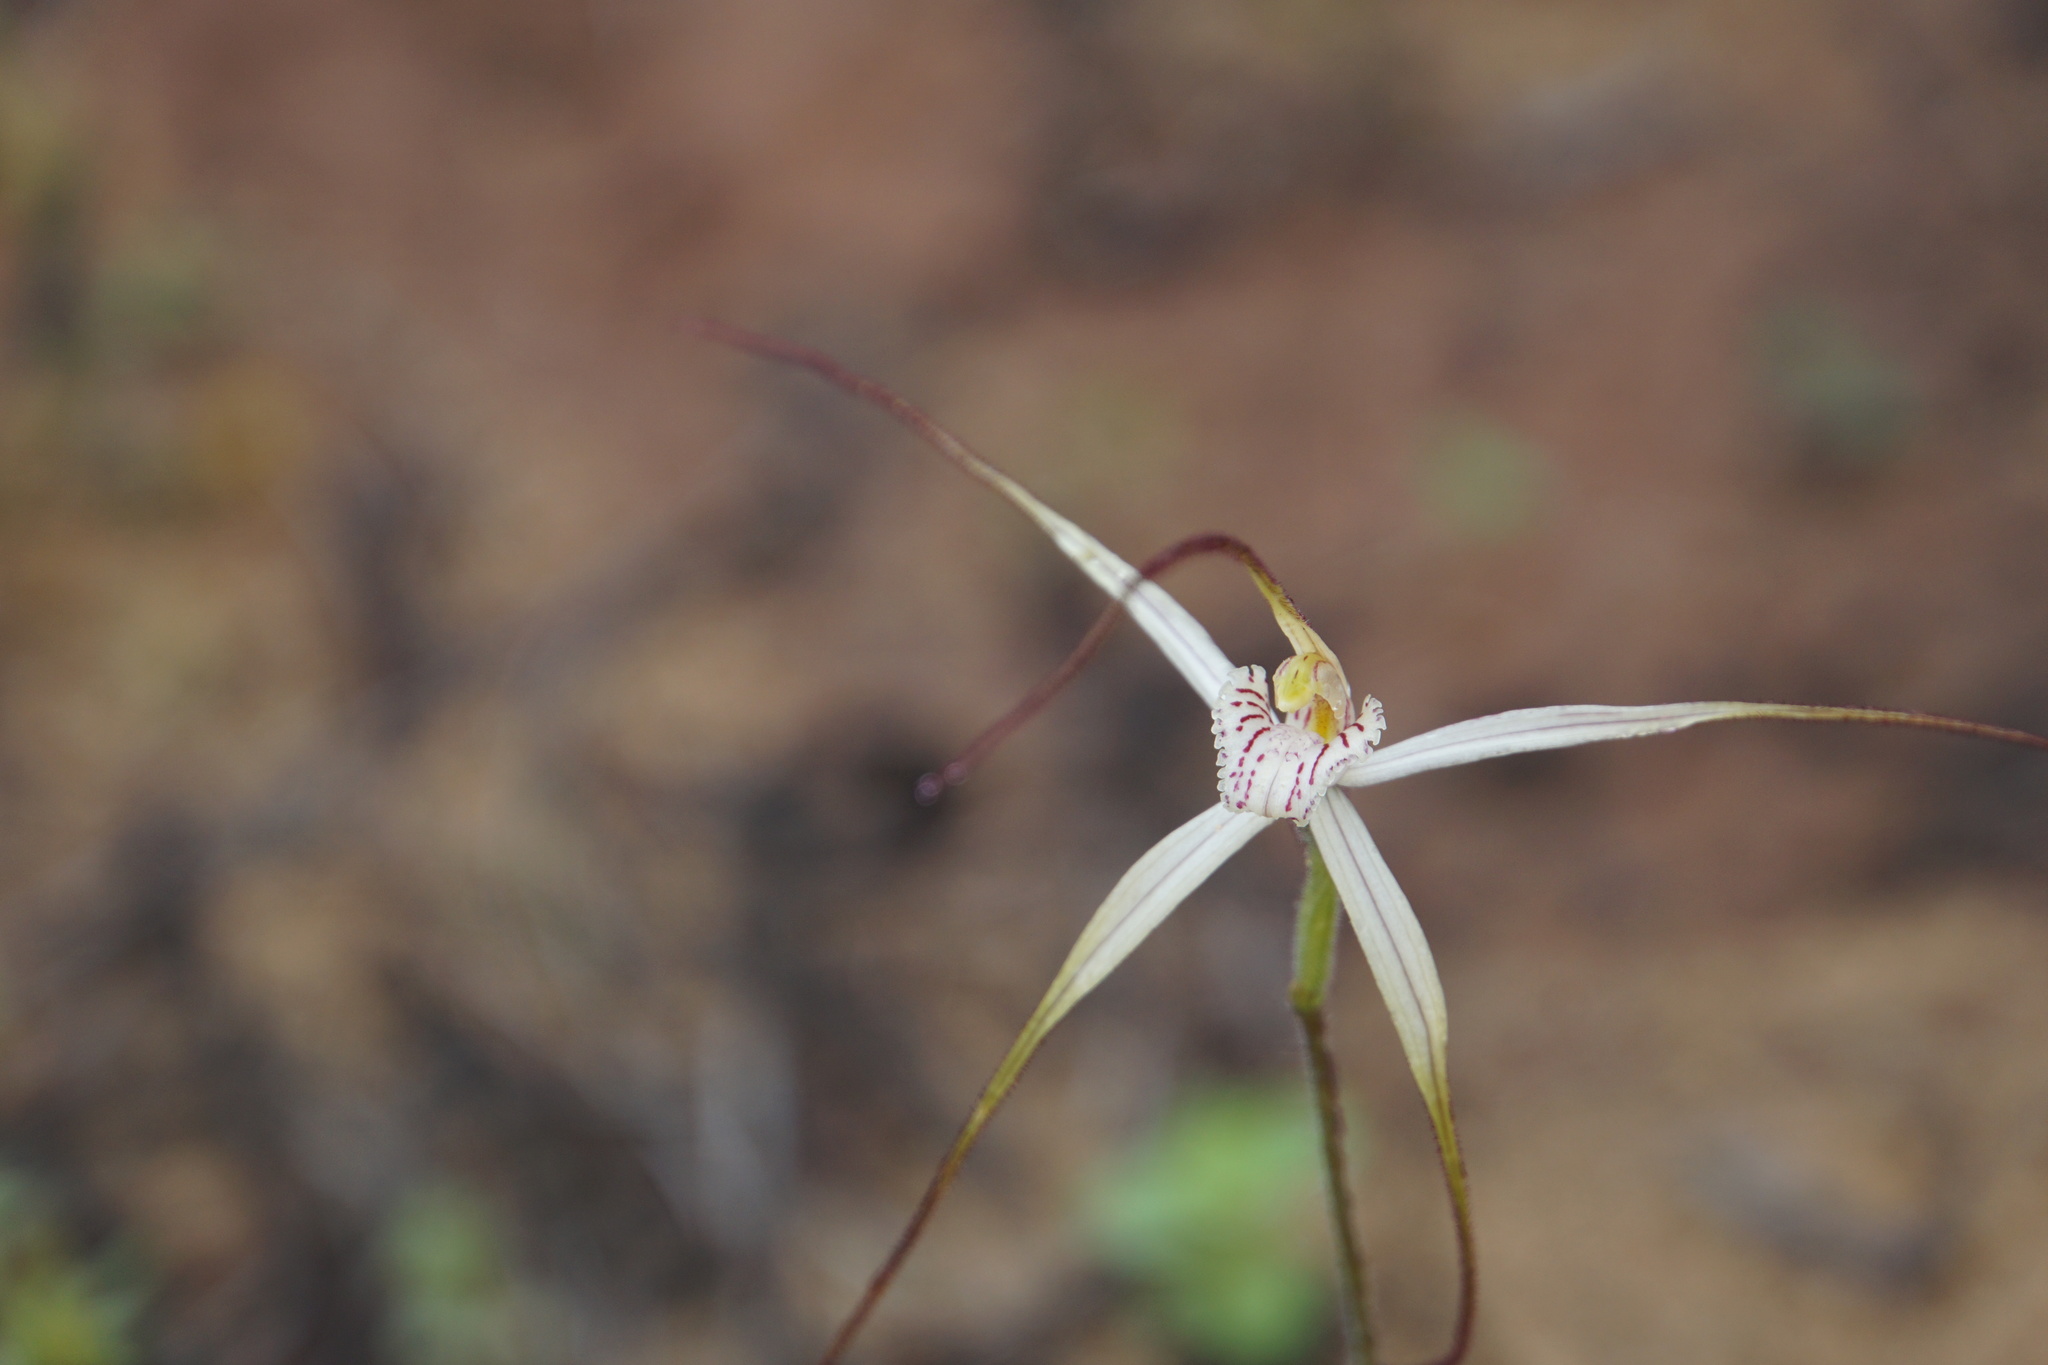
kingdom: Plantae
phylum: Tracheophyta
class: Liliopsida
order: Asparagales
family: Orchidaceae
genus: Caladenia
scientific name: Caladenia bicalliata
